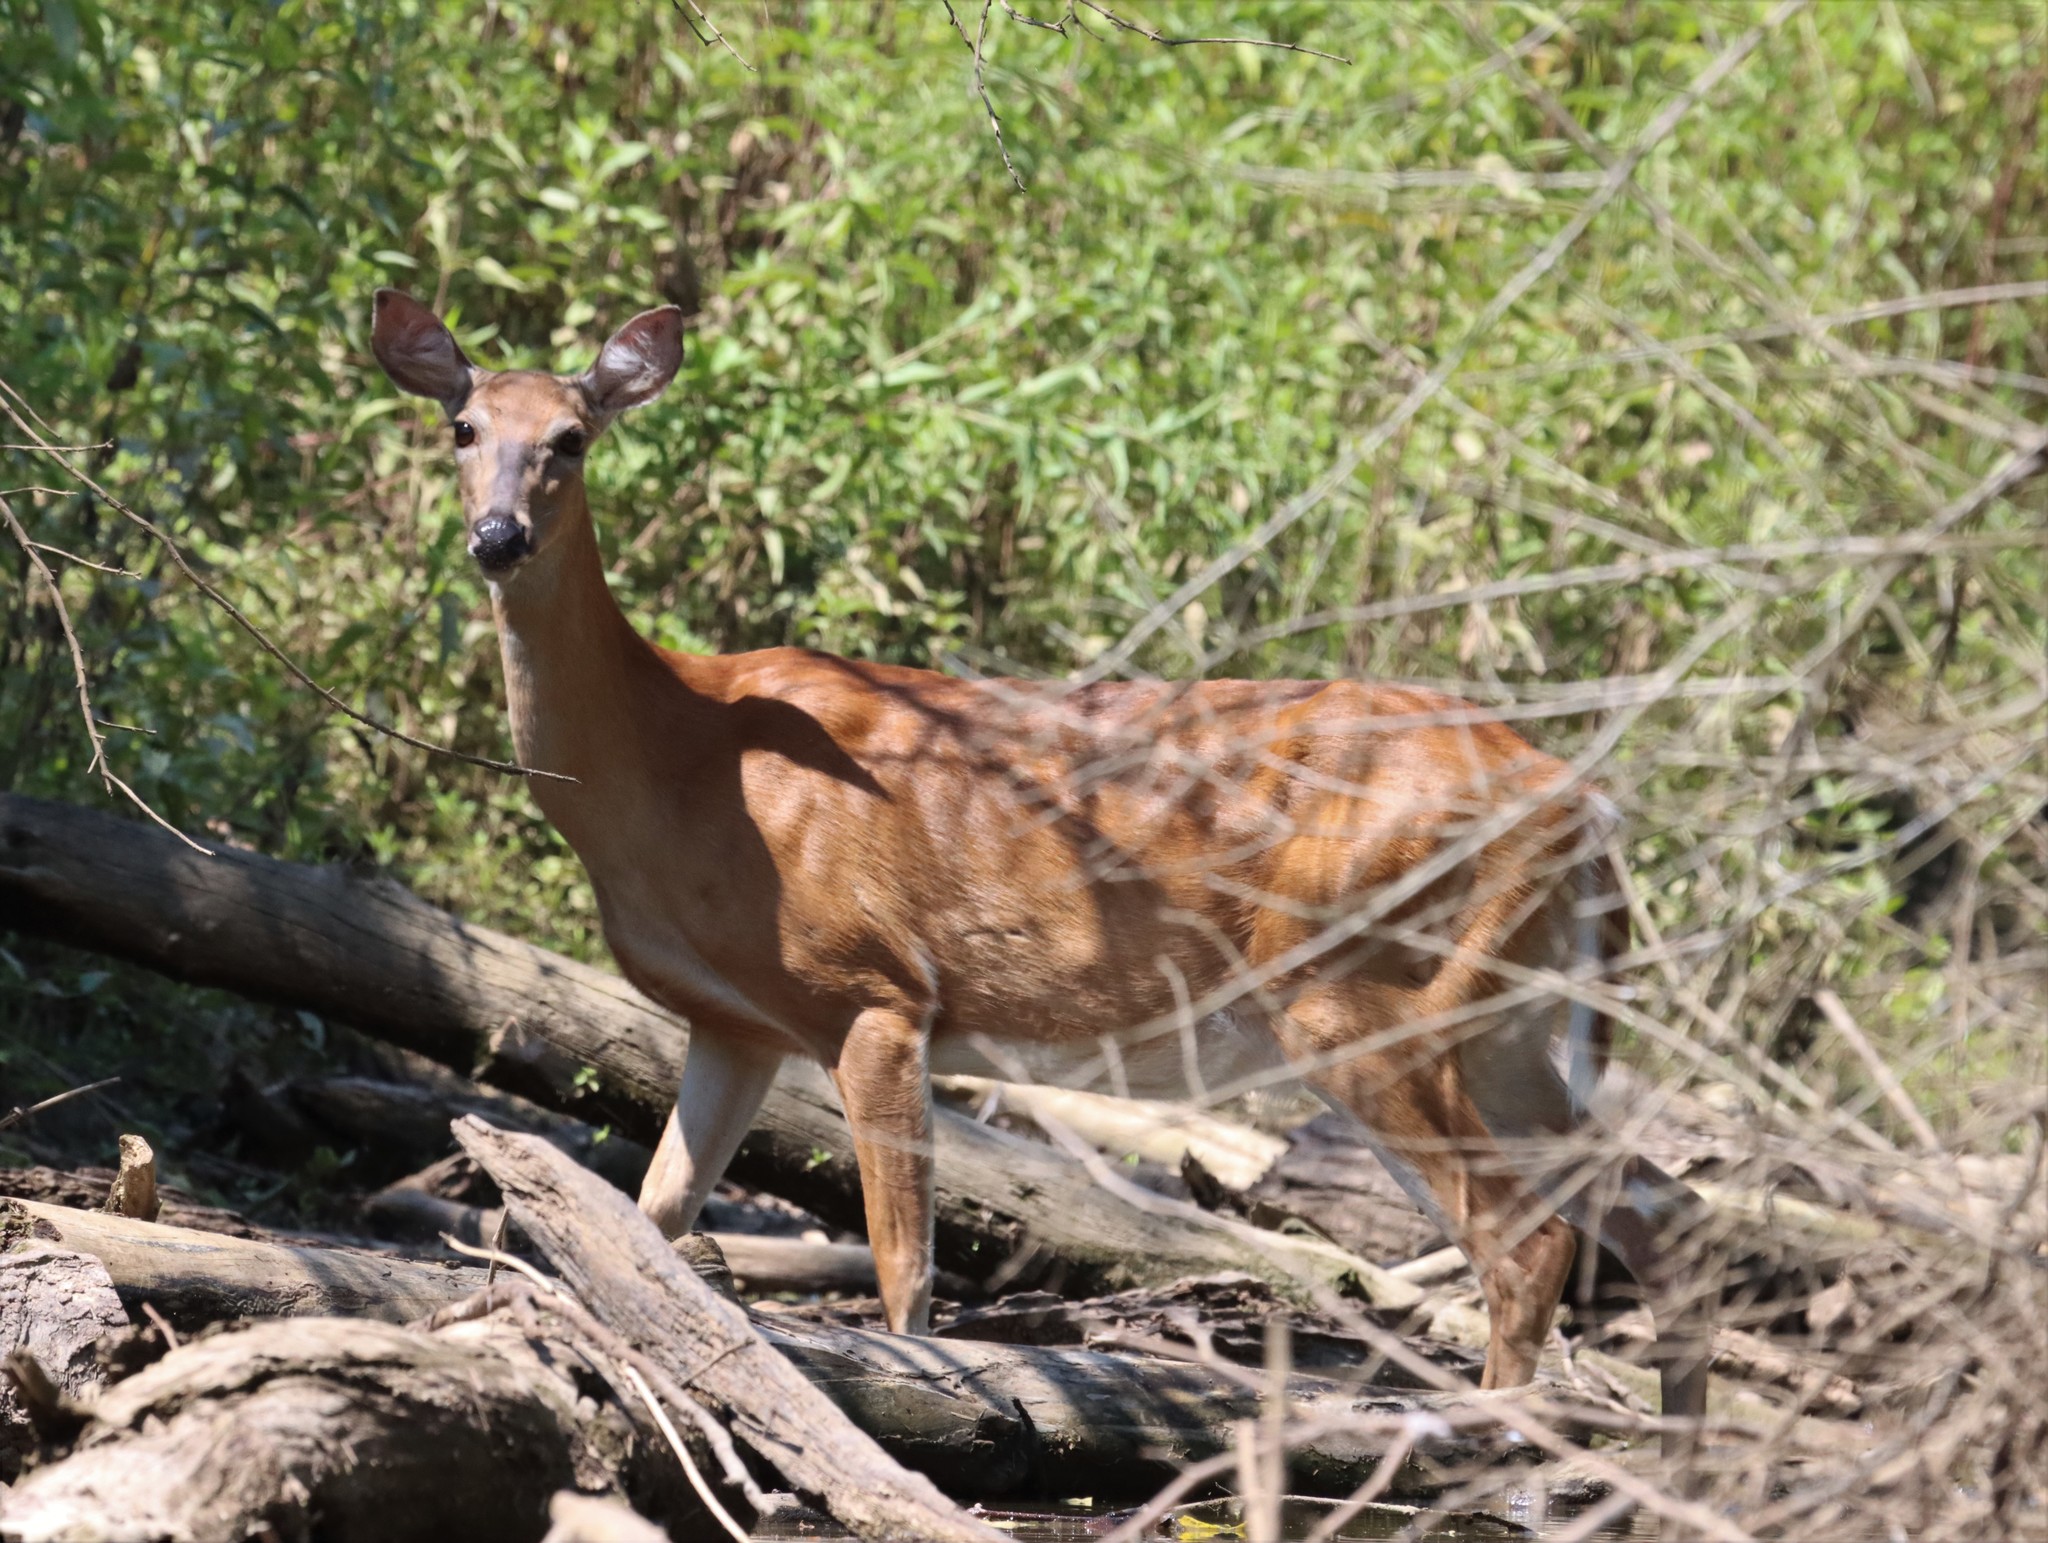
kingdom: Animalia
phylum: Chordata
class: Mammalia
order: Artiodactyla
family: Cervidae
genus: Odocoileus
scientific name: Odocoileus virginianus
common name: White-tailed deer
